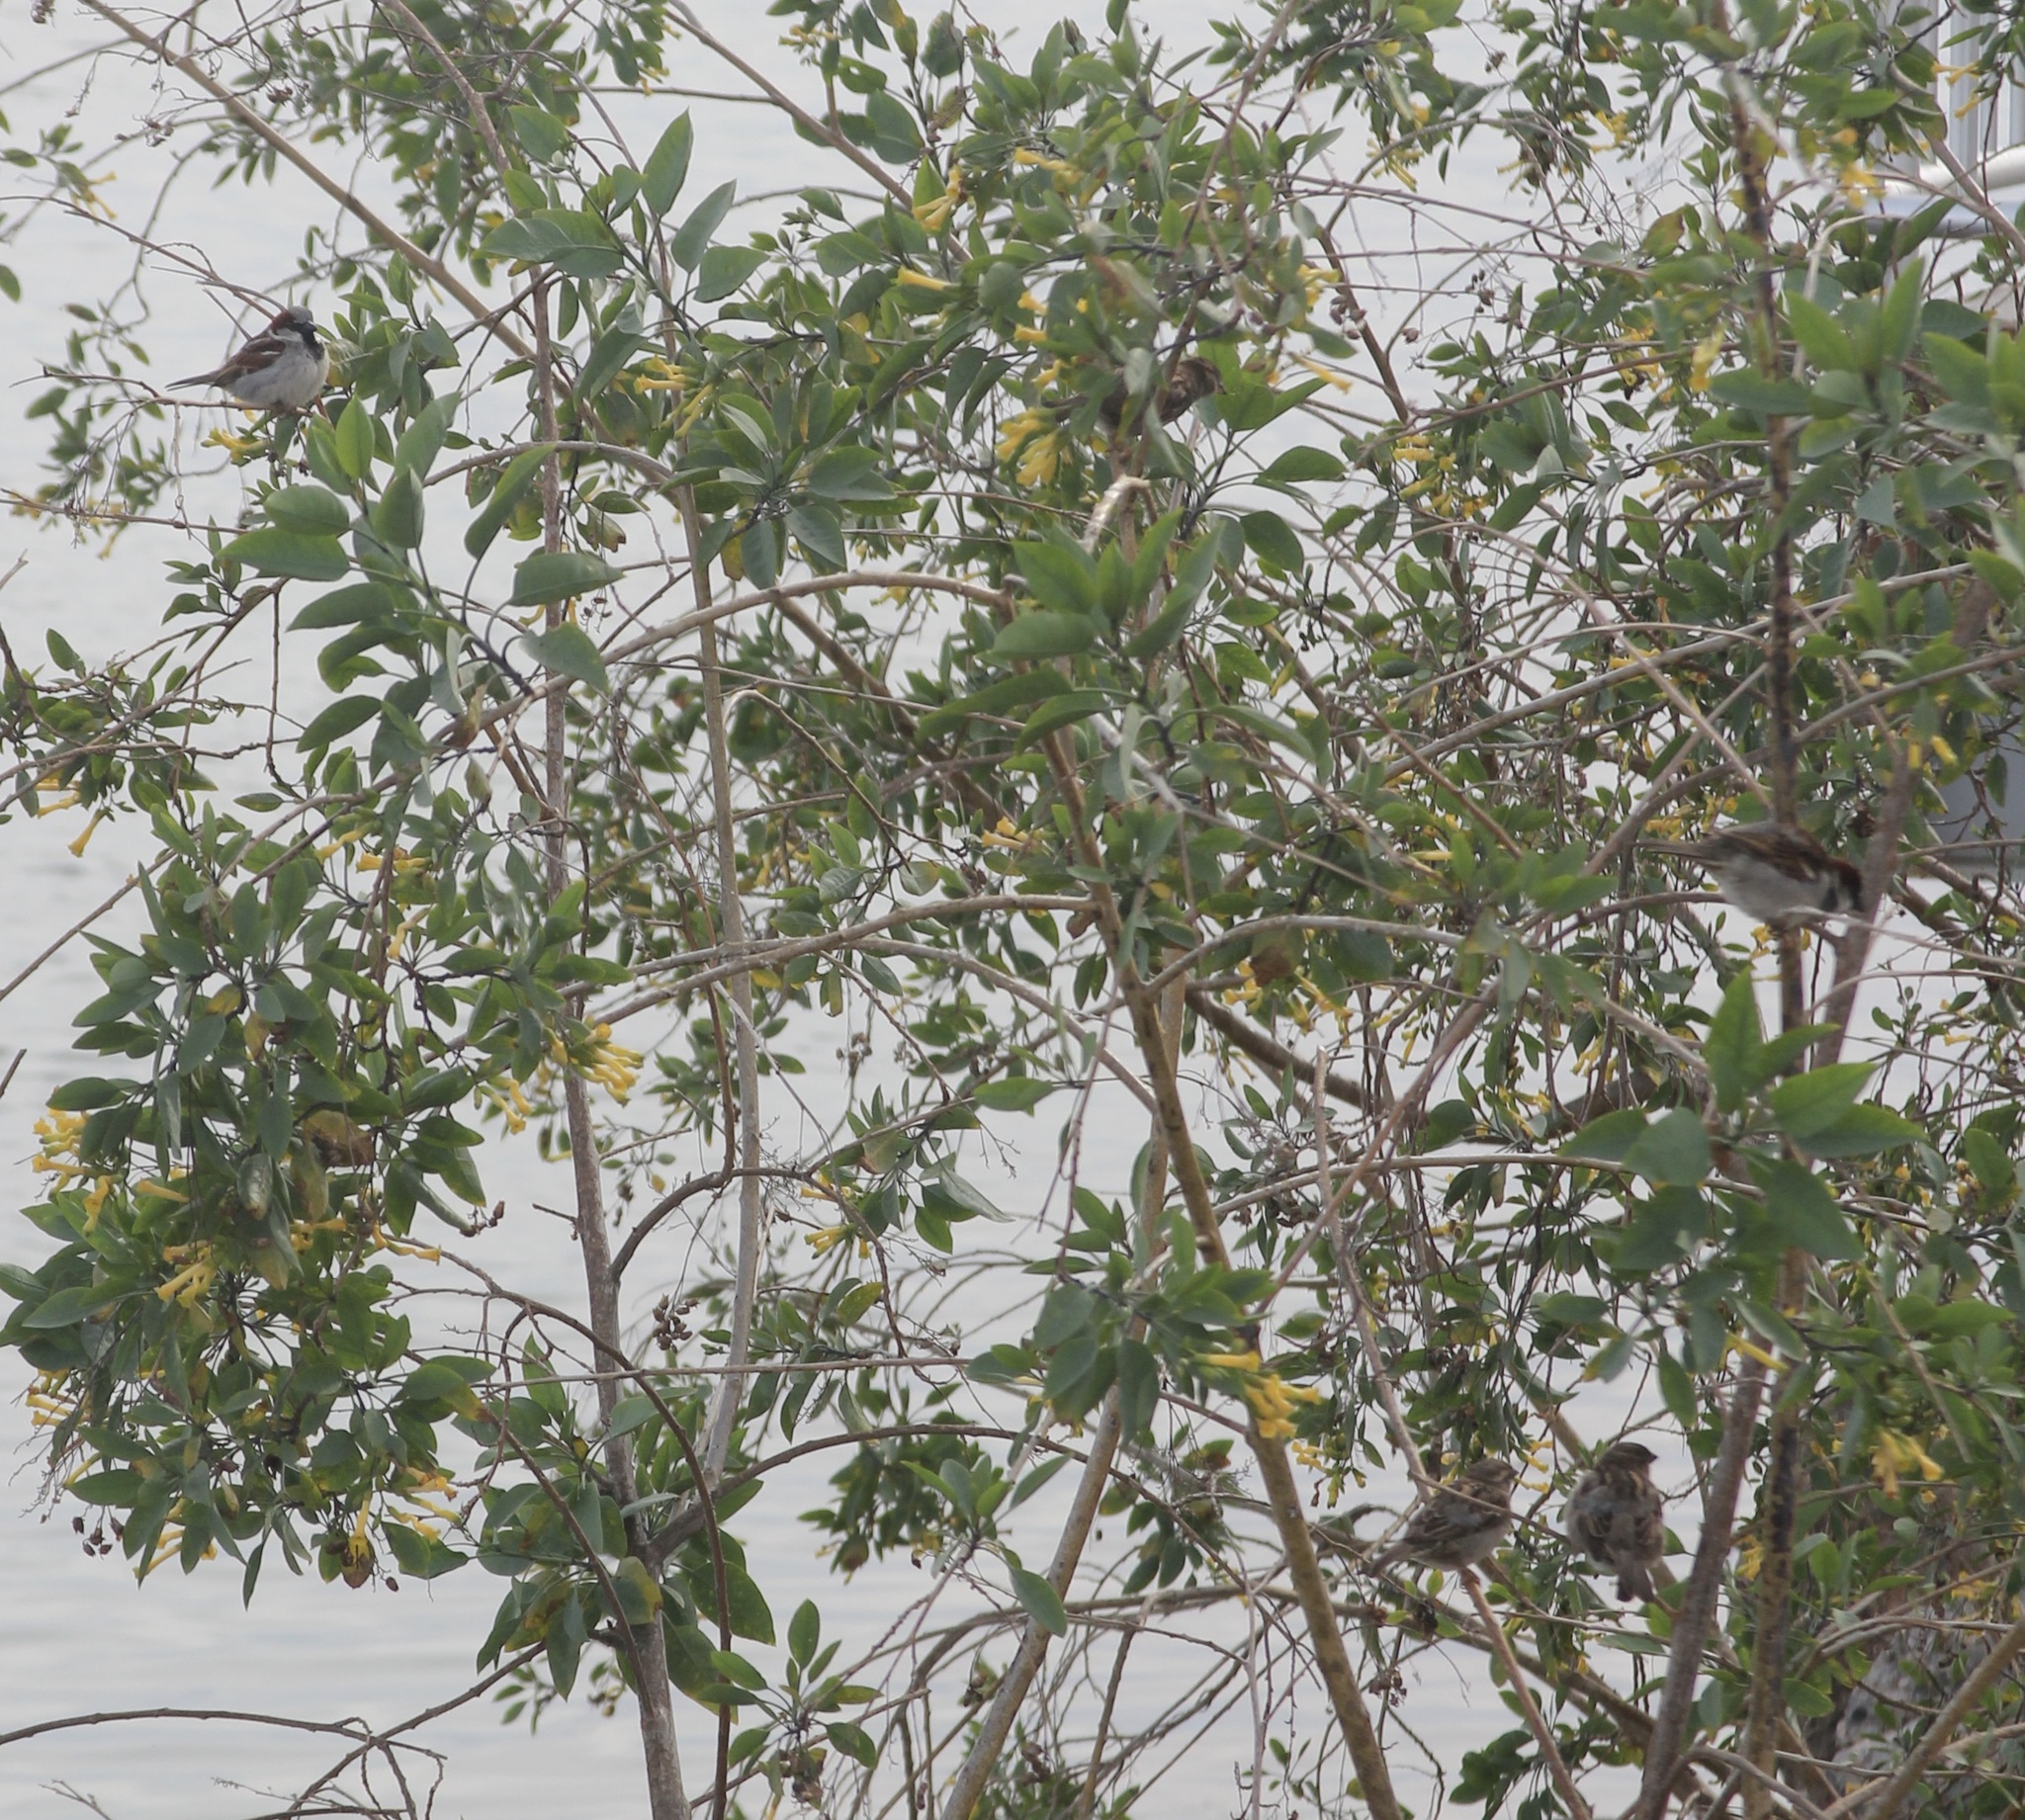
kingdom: Animalia
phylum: Chordata
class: Aves
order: Passeriformes
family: Passeridae
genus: Passer
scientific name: Passer domesticus
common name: House sparrow
